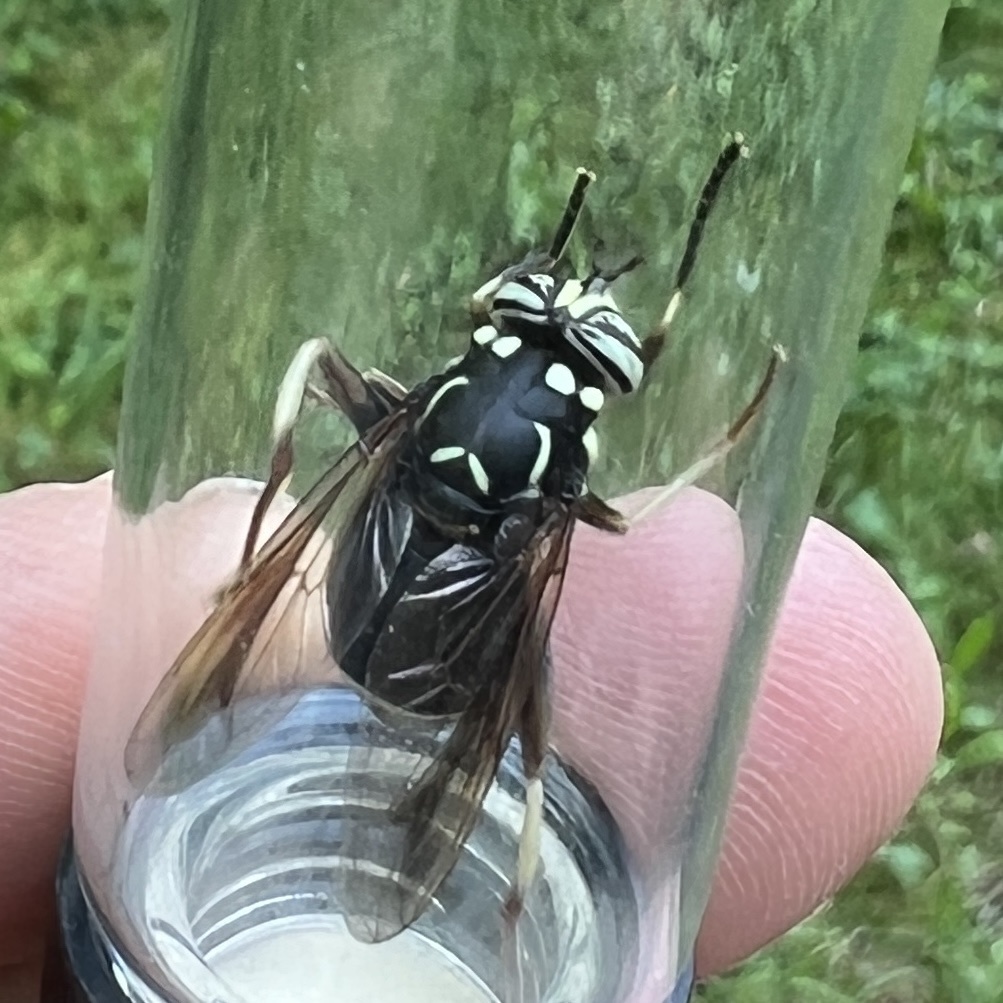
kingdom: Animalia
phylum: Arthropoda
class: Insecta
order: Diptera
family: Syrphidae
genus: Spilomyia
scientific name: Spilomyia fusca
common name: Bald-faced hornet fly
